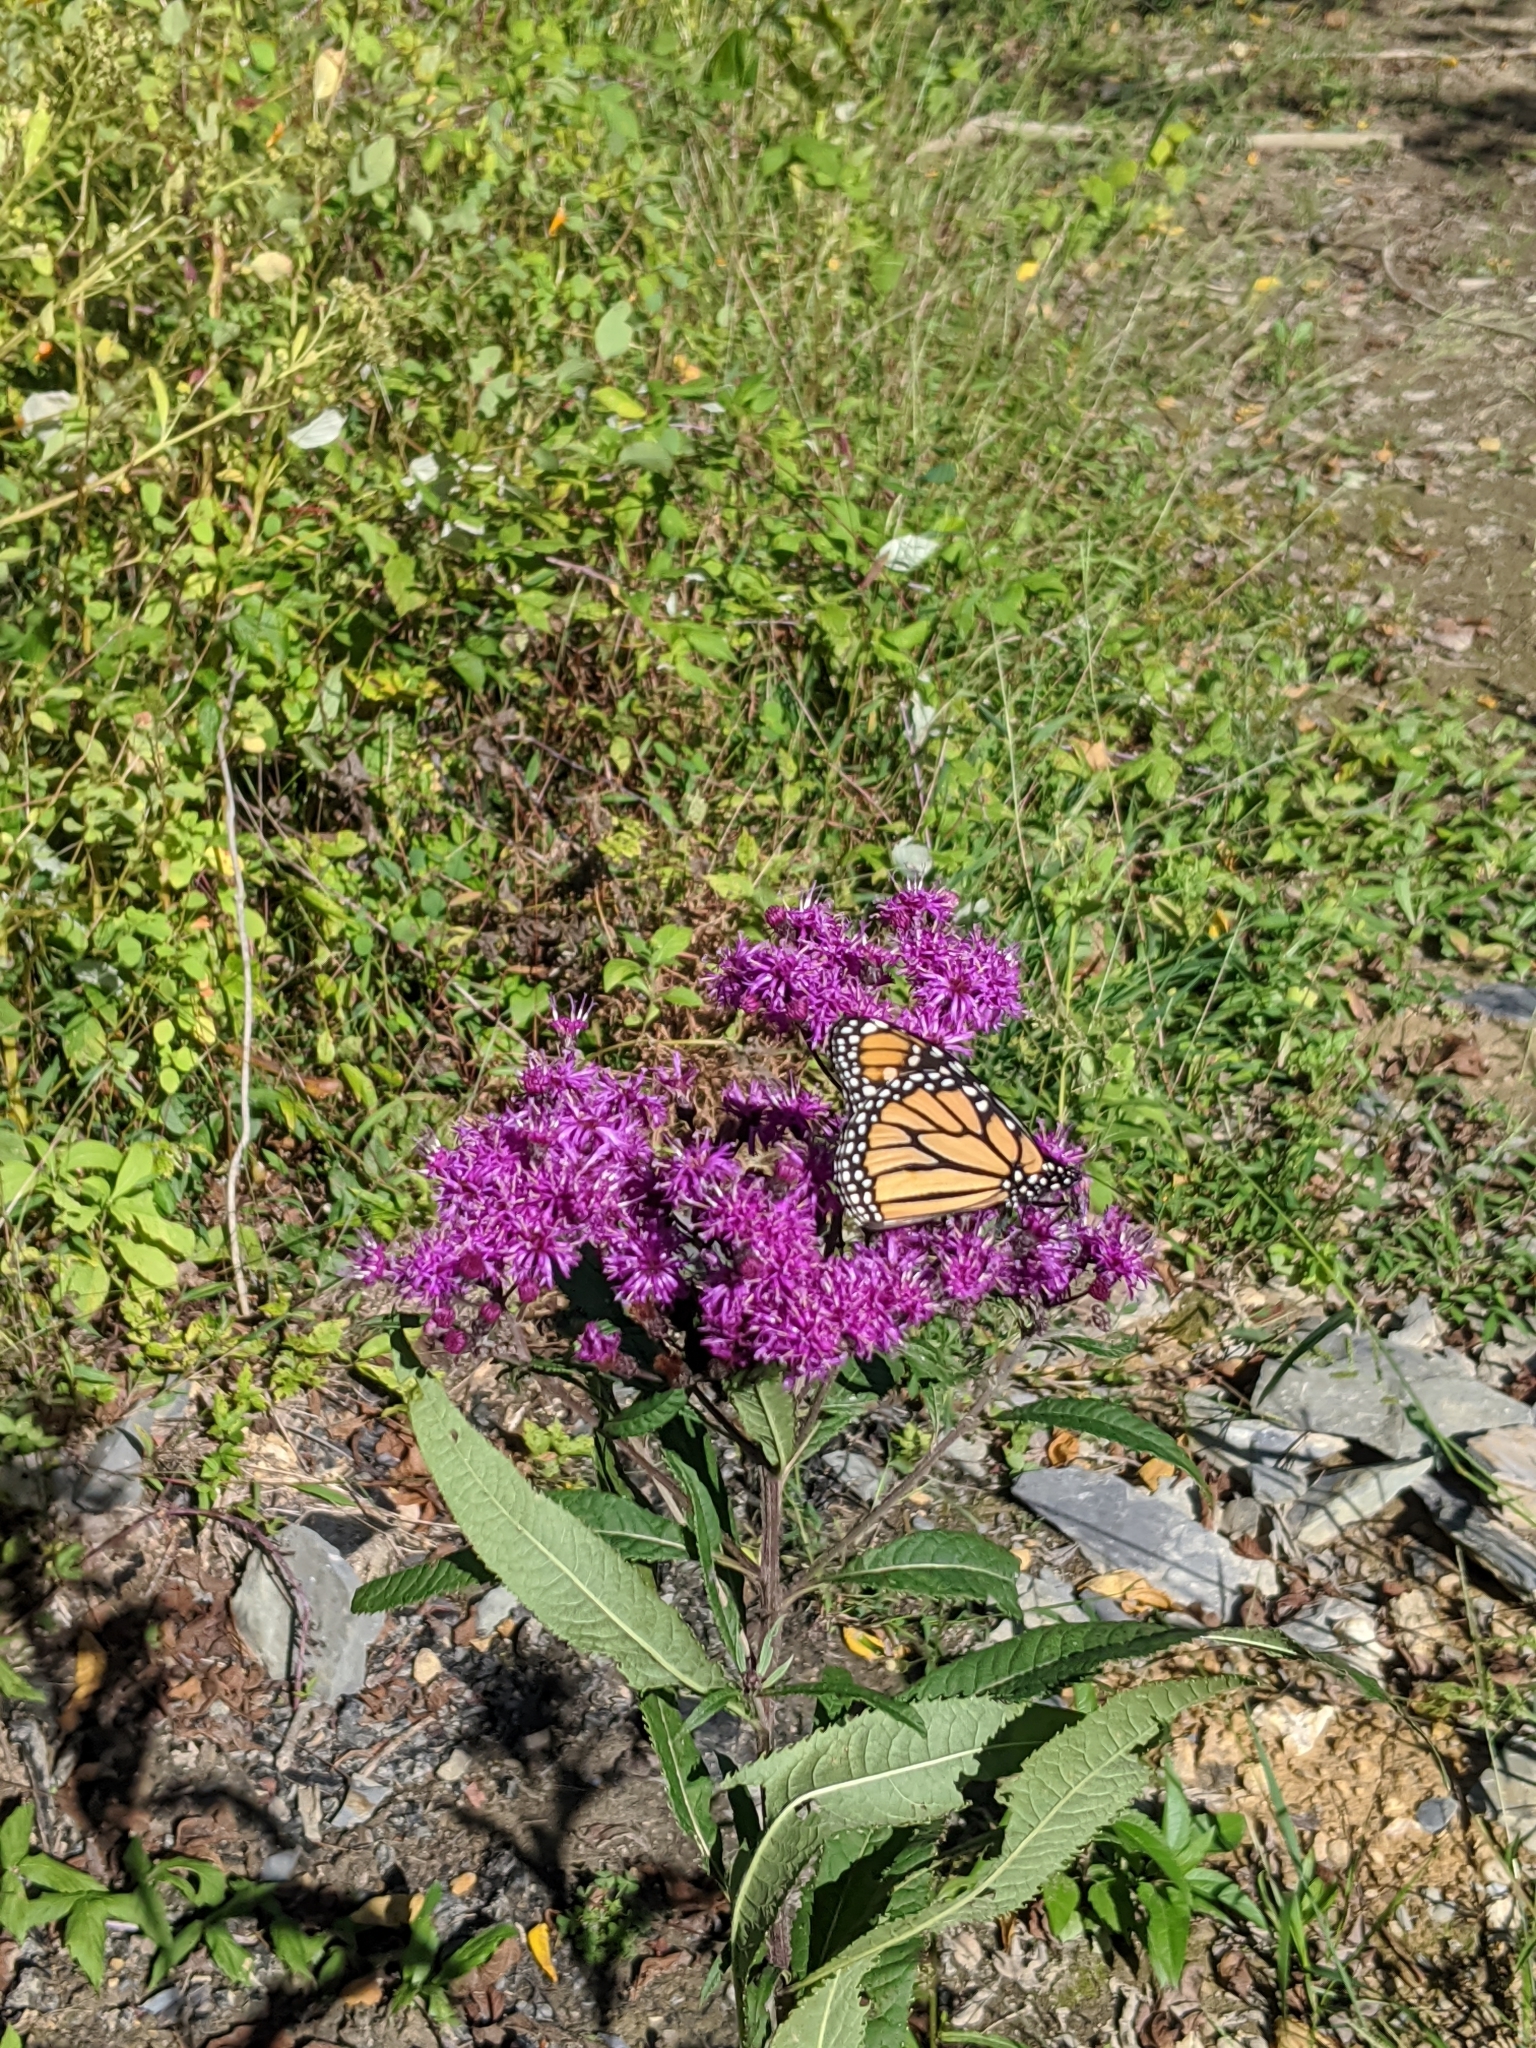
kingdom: Animalia
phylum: Arthropoda
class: Insecta
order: Lepidoptera
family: Nymphalidae
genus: Danaus
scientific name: Danaus plexippus
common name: Monarch
